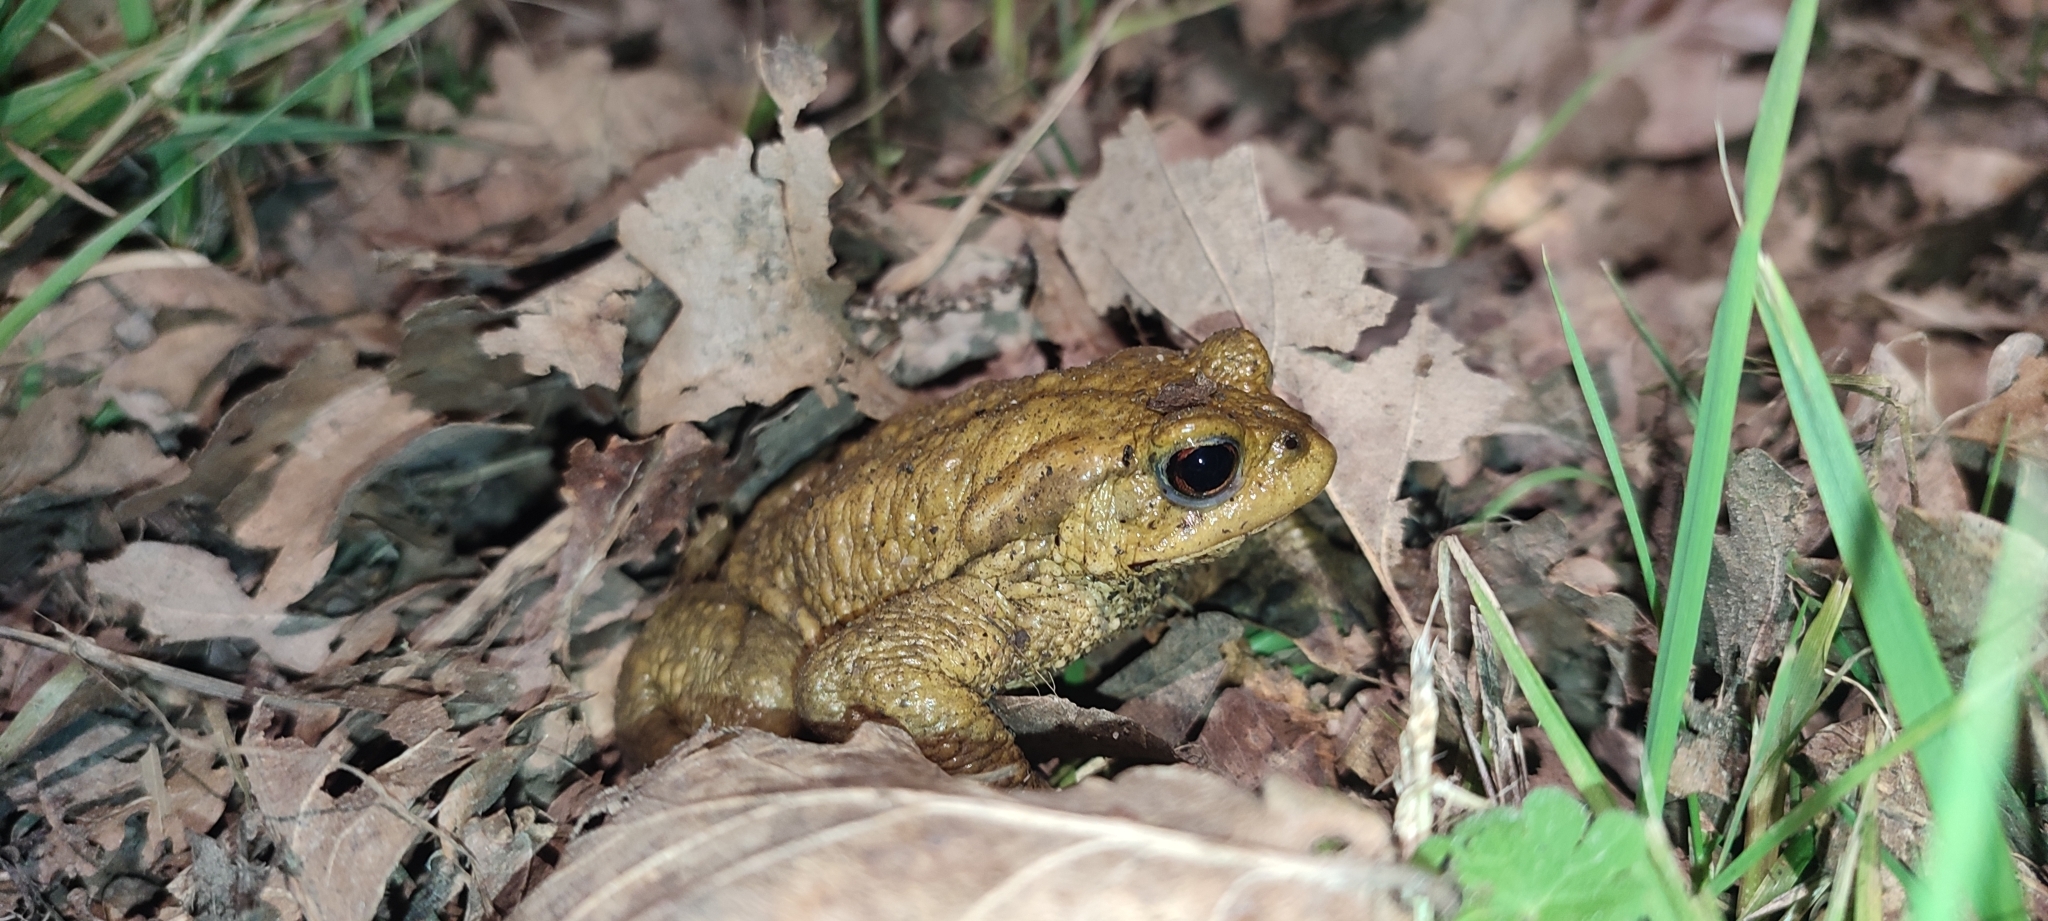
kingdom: Animalia
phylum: Chordata
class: Amphibia
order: Anura
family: Bufonidae
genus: Bufo
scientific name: Bufo spinosus
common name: Western common toad
